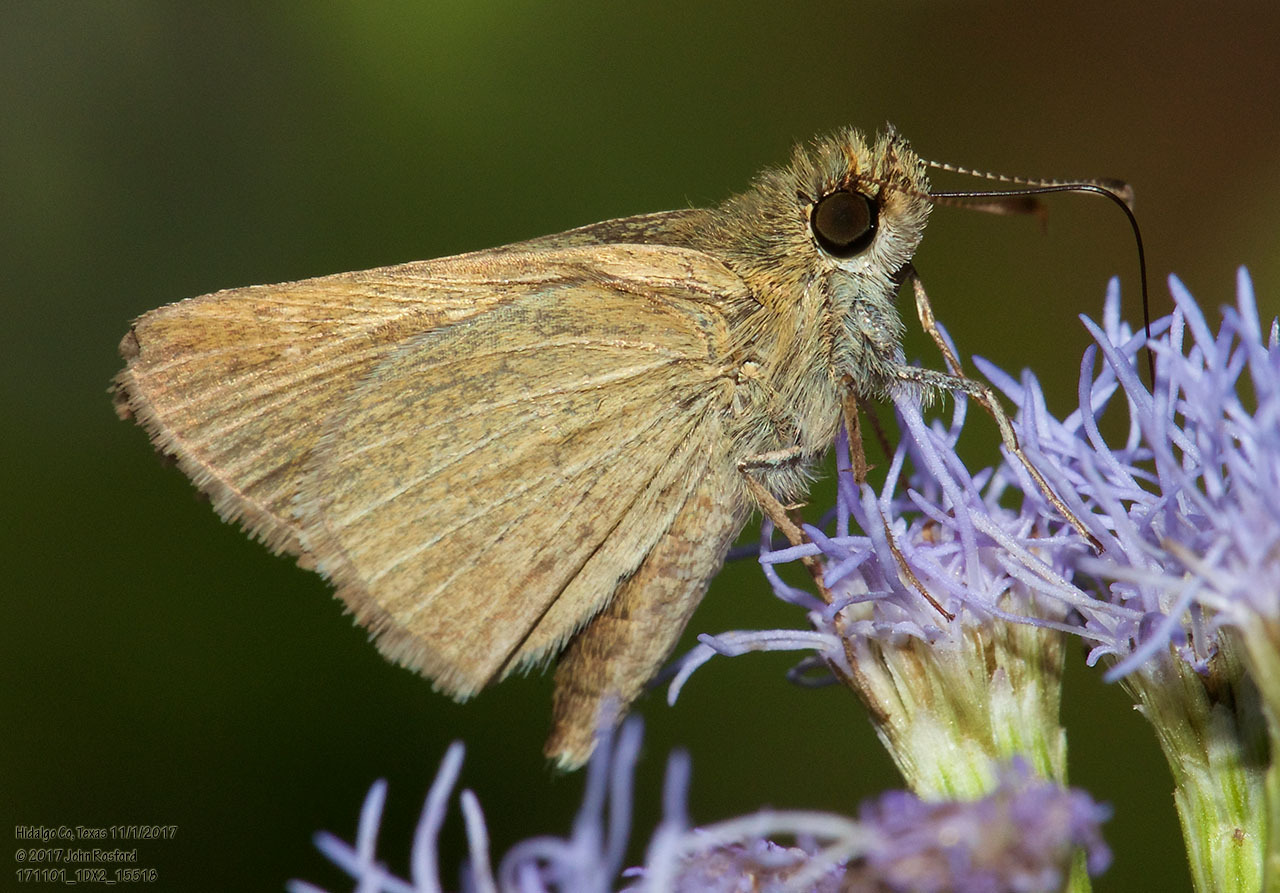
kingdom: Animalia
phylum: Arthropoda
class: Insecta
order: Lepidoptera
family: Hesperiidae
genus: Nastra
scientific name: Nastra julia
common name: Julia's skipper
